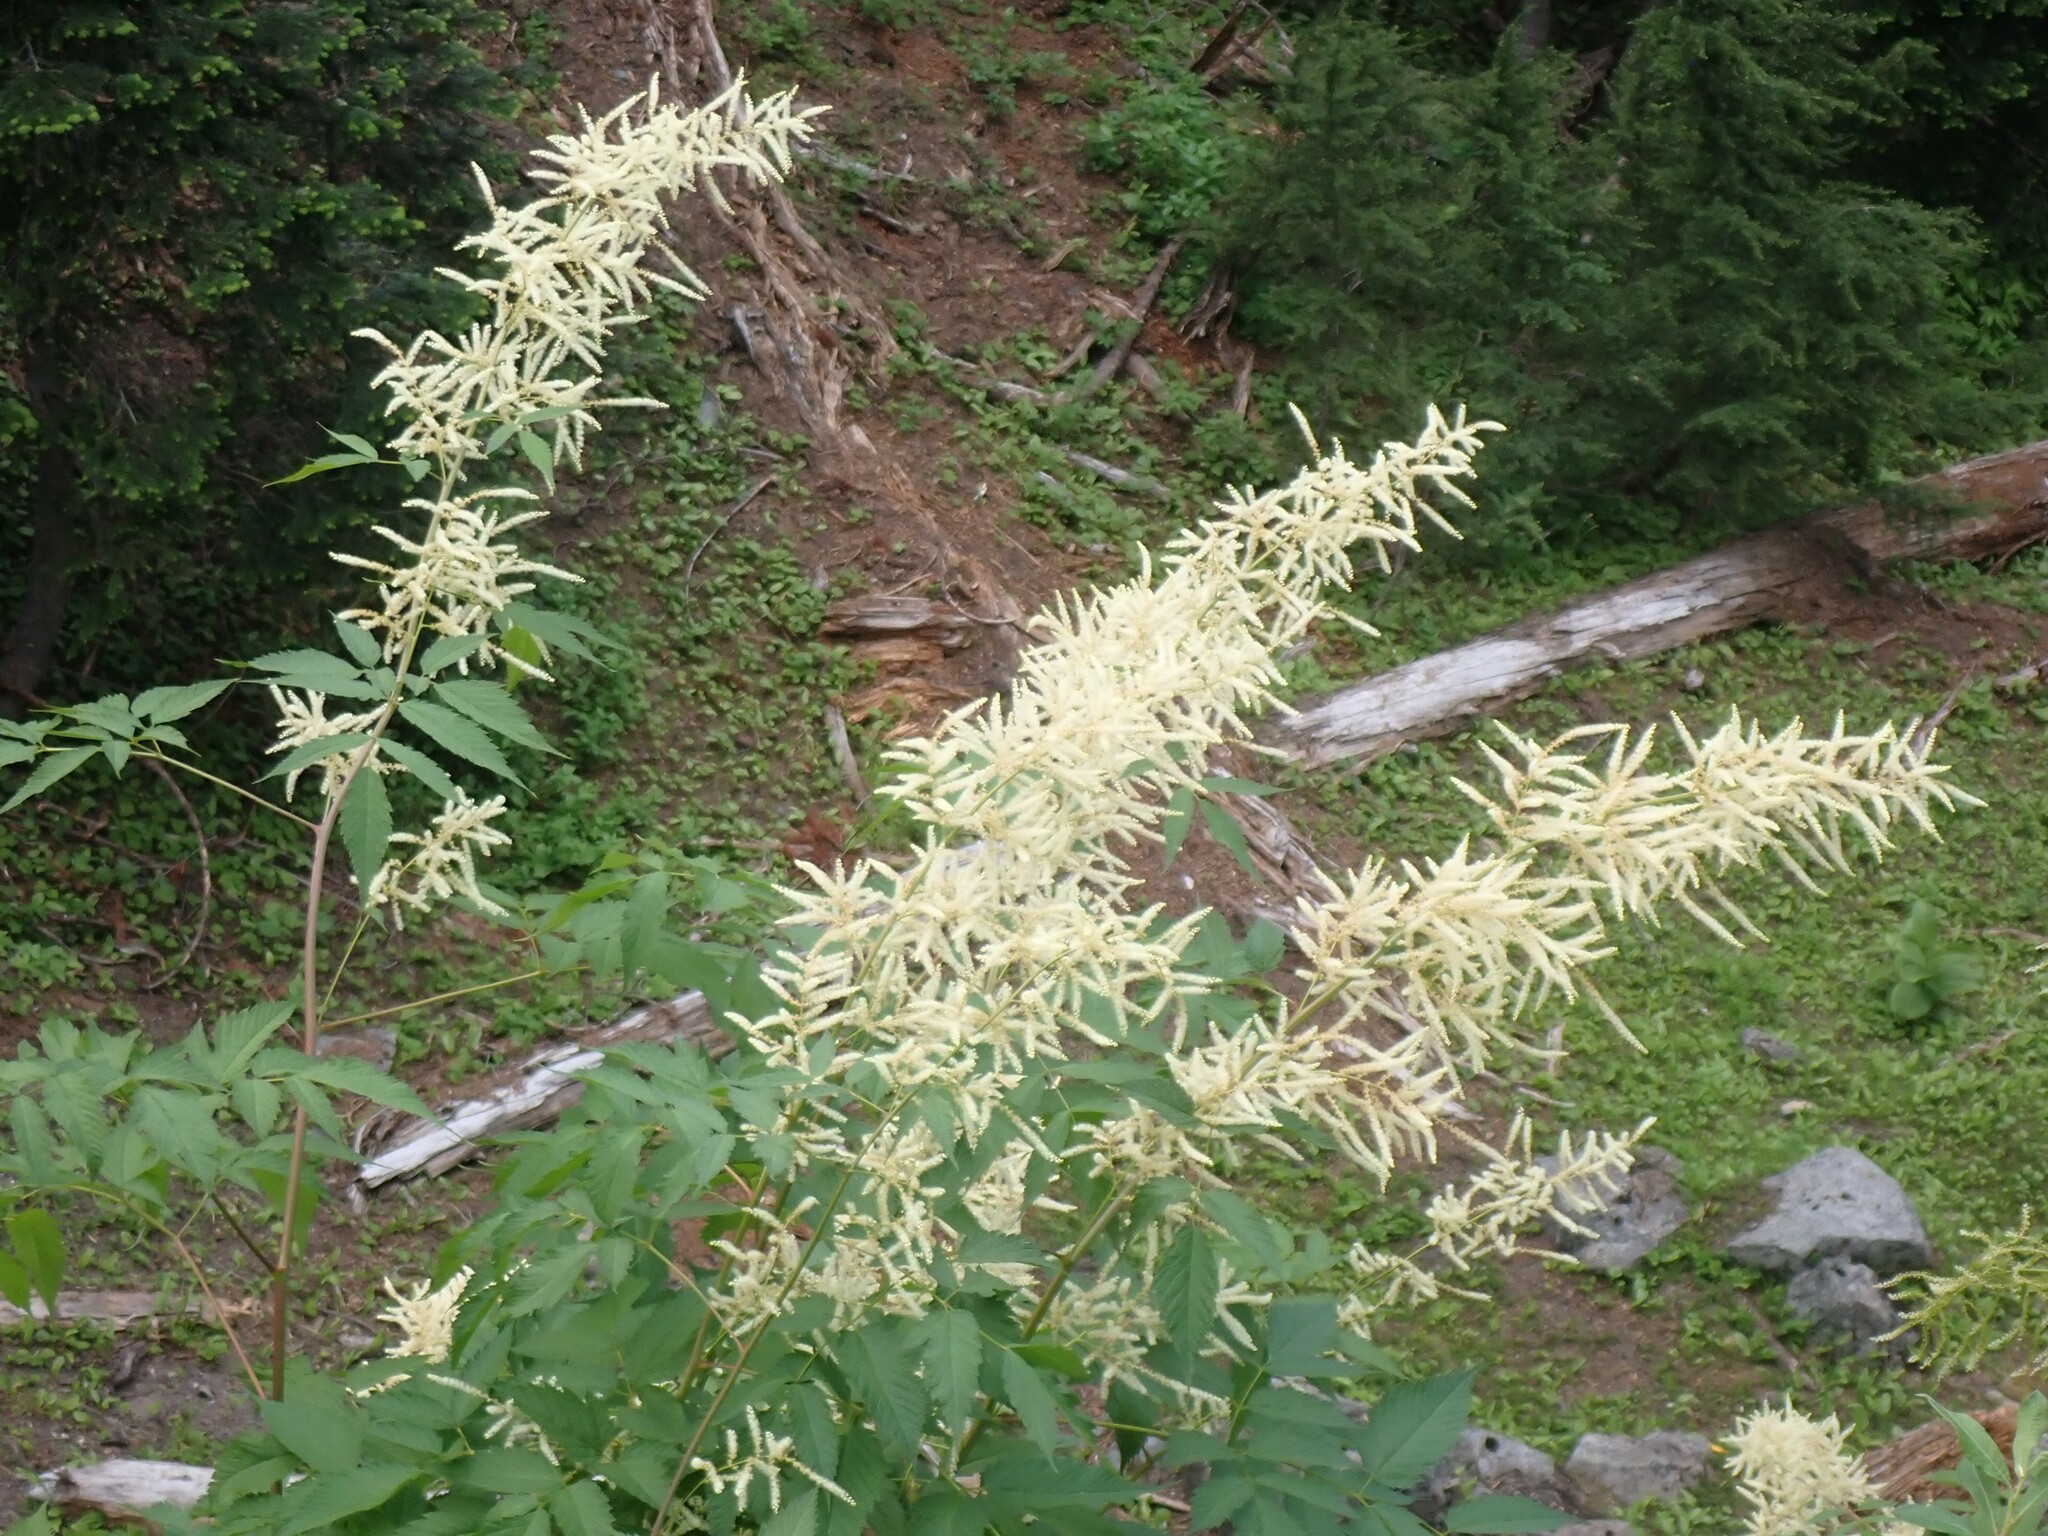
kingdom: Plantae
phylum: Tracheophyta
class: Magnoliopsida
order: Rosales
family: Rosaceae
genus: Aruncus
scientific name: Aruncus dioicus
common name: Buck's-beard
